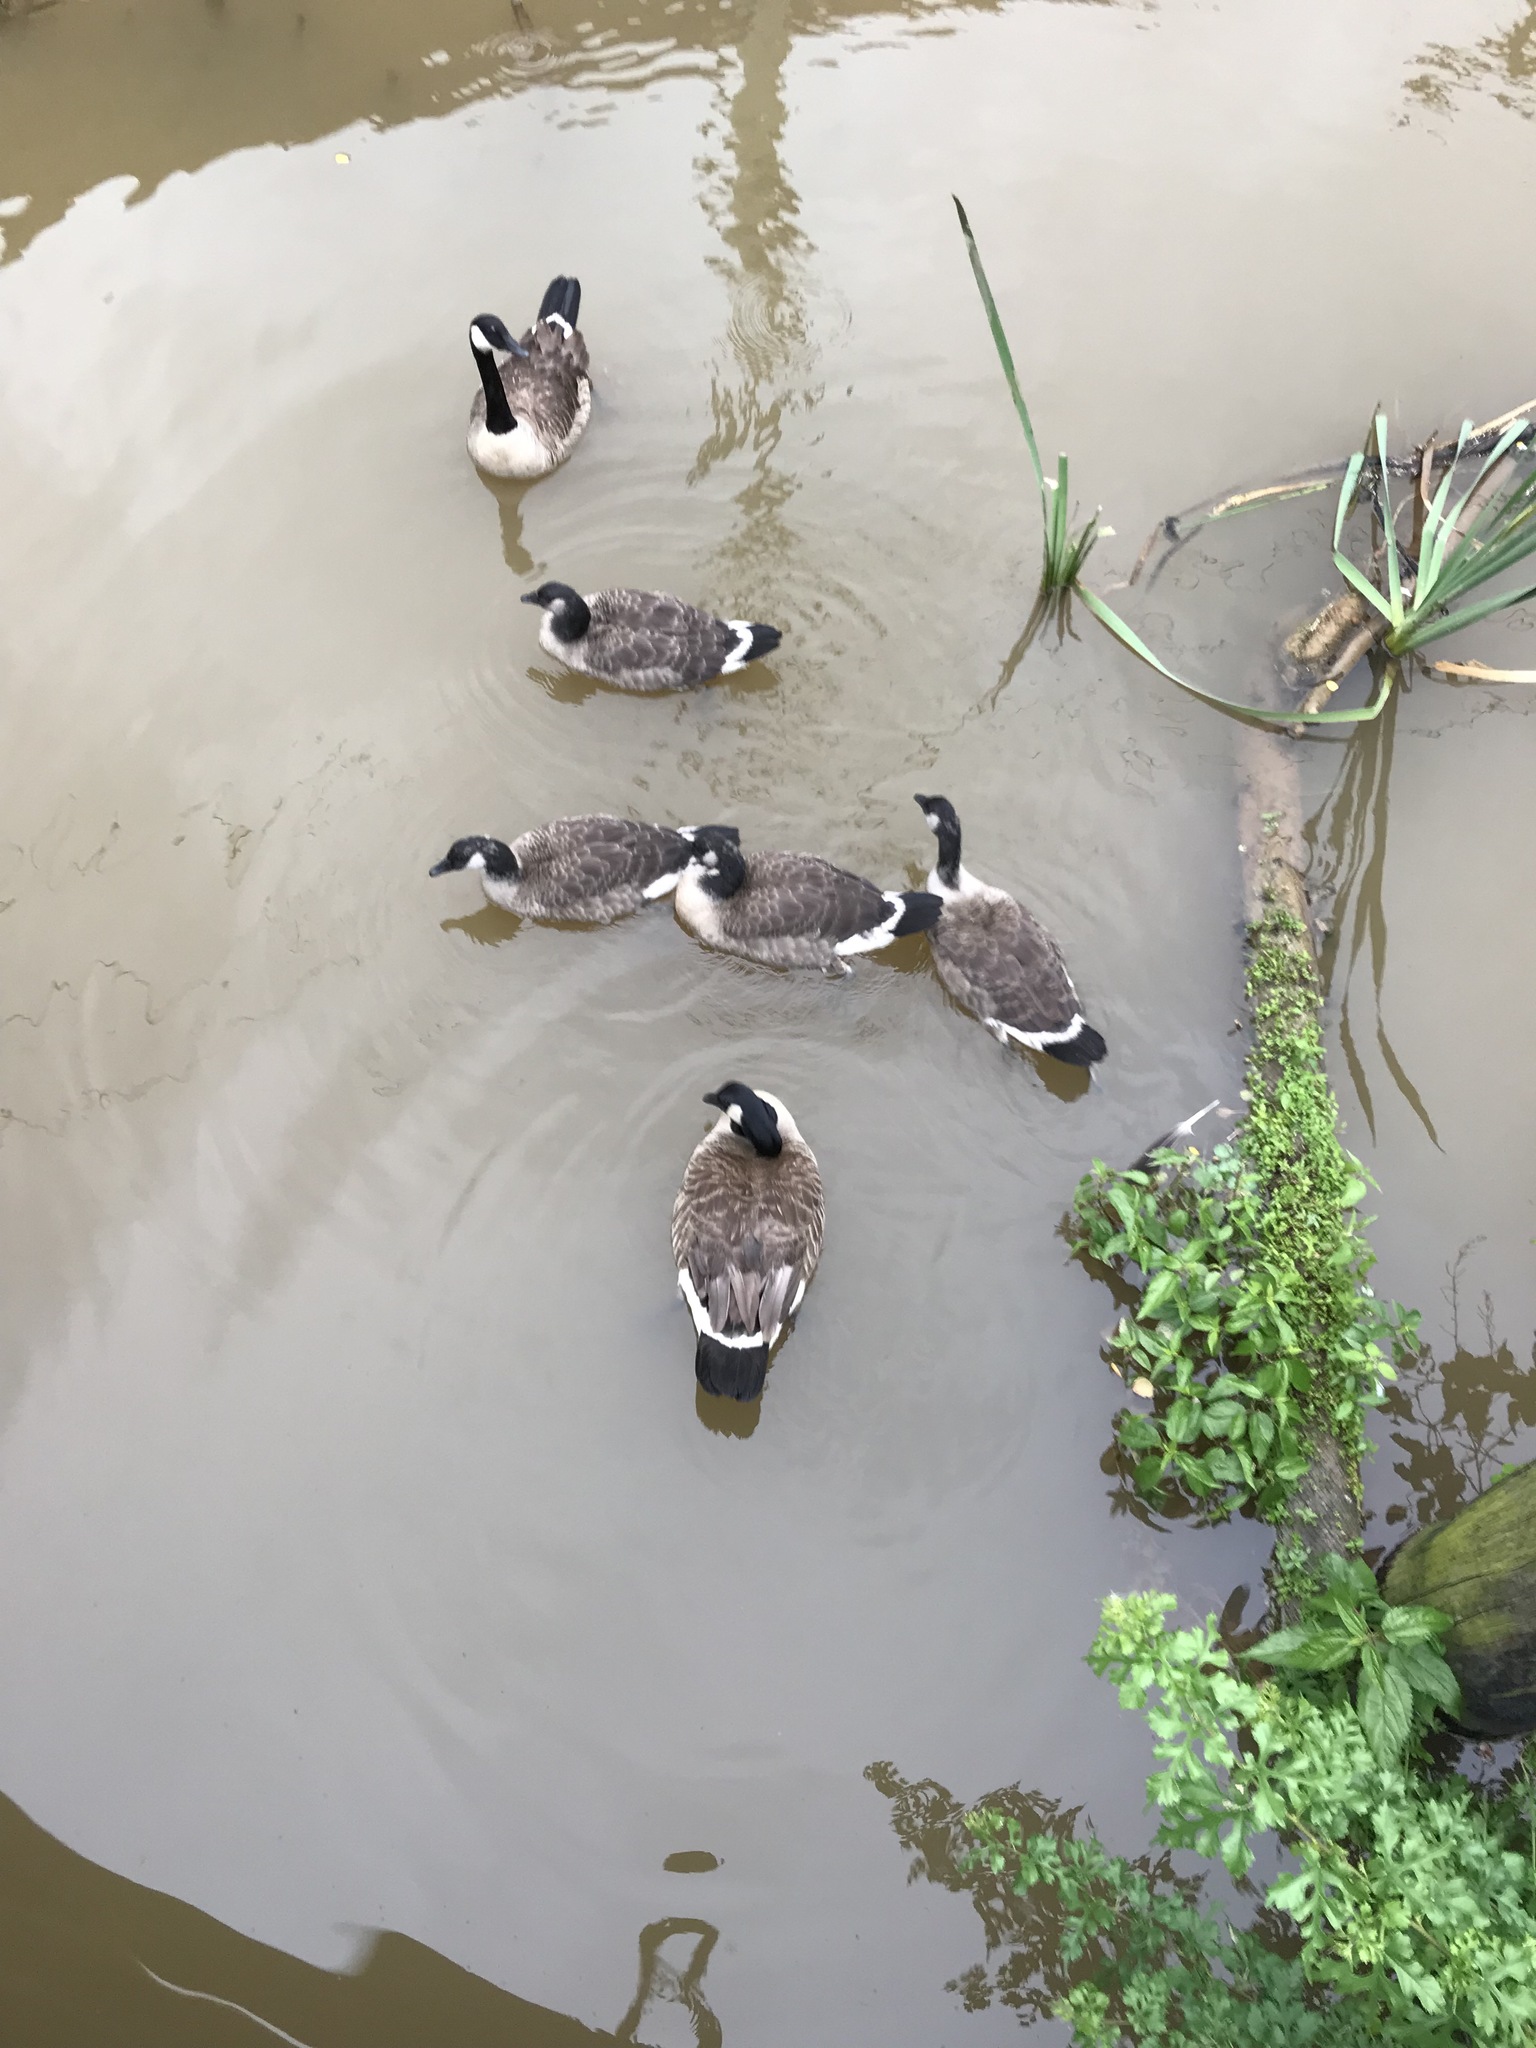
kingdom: Animalia
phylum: Chordata
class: Aves
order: Anseriformes
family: Anatidae
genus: Branta
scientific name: Branta canadensis
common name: Canada goose
